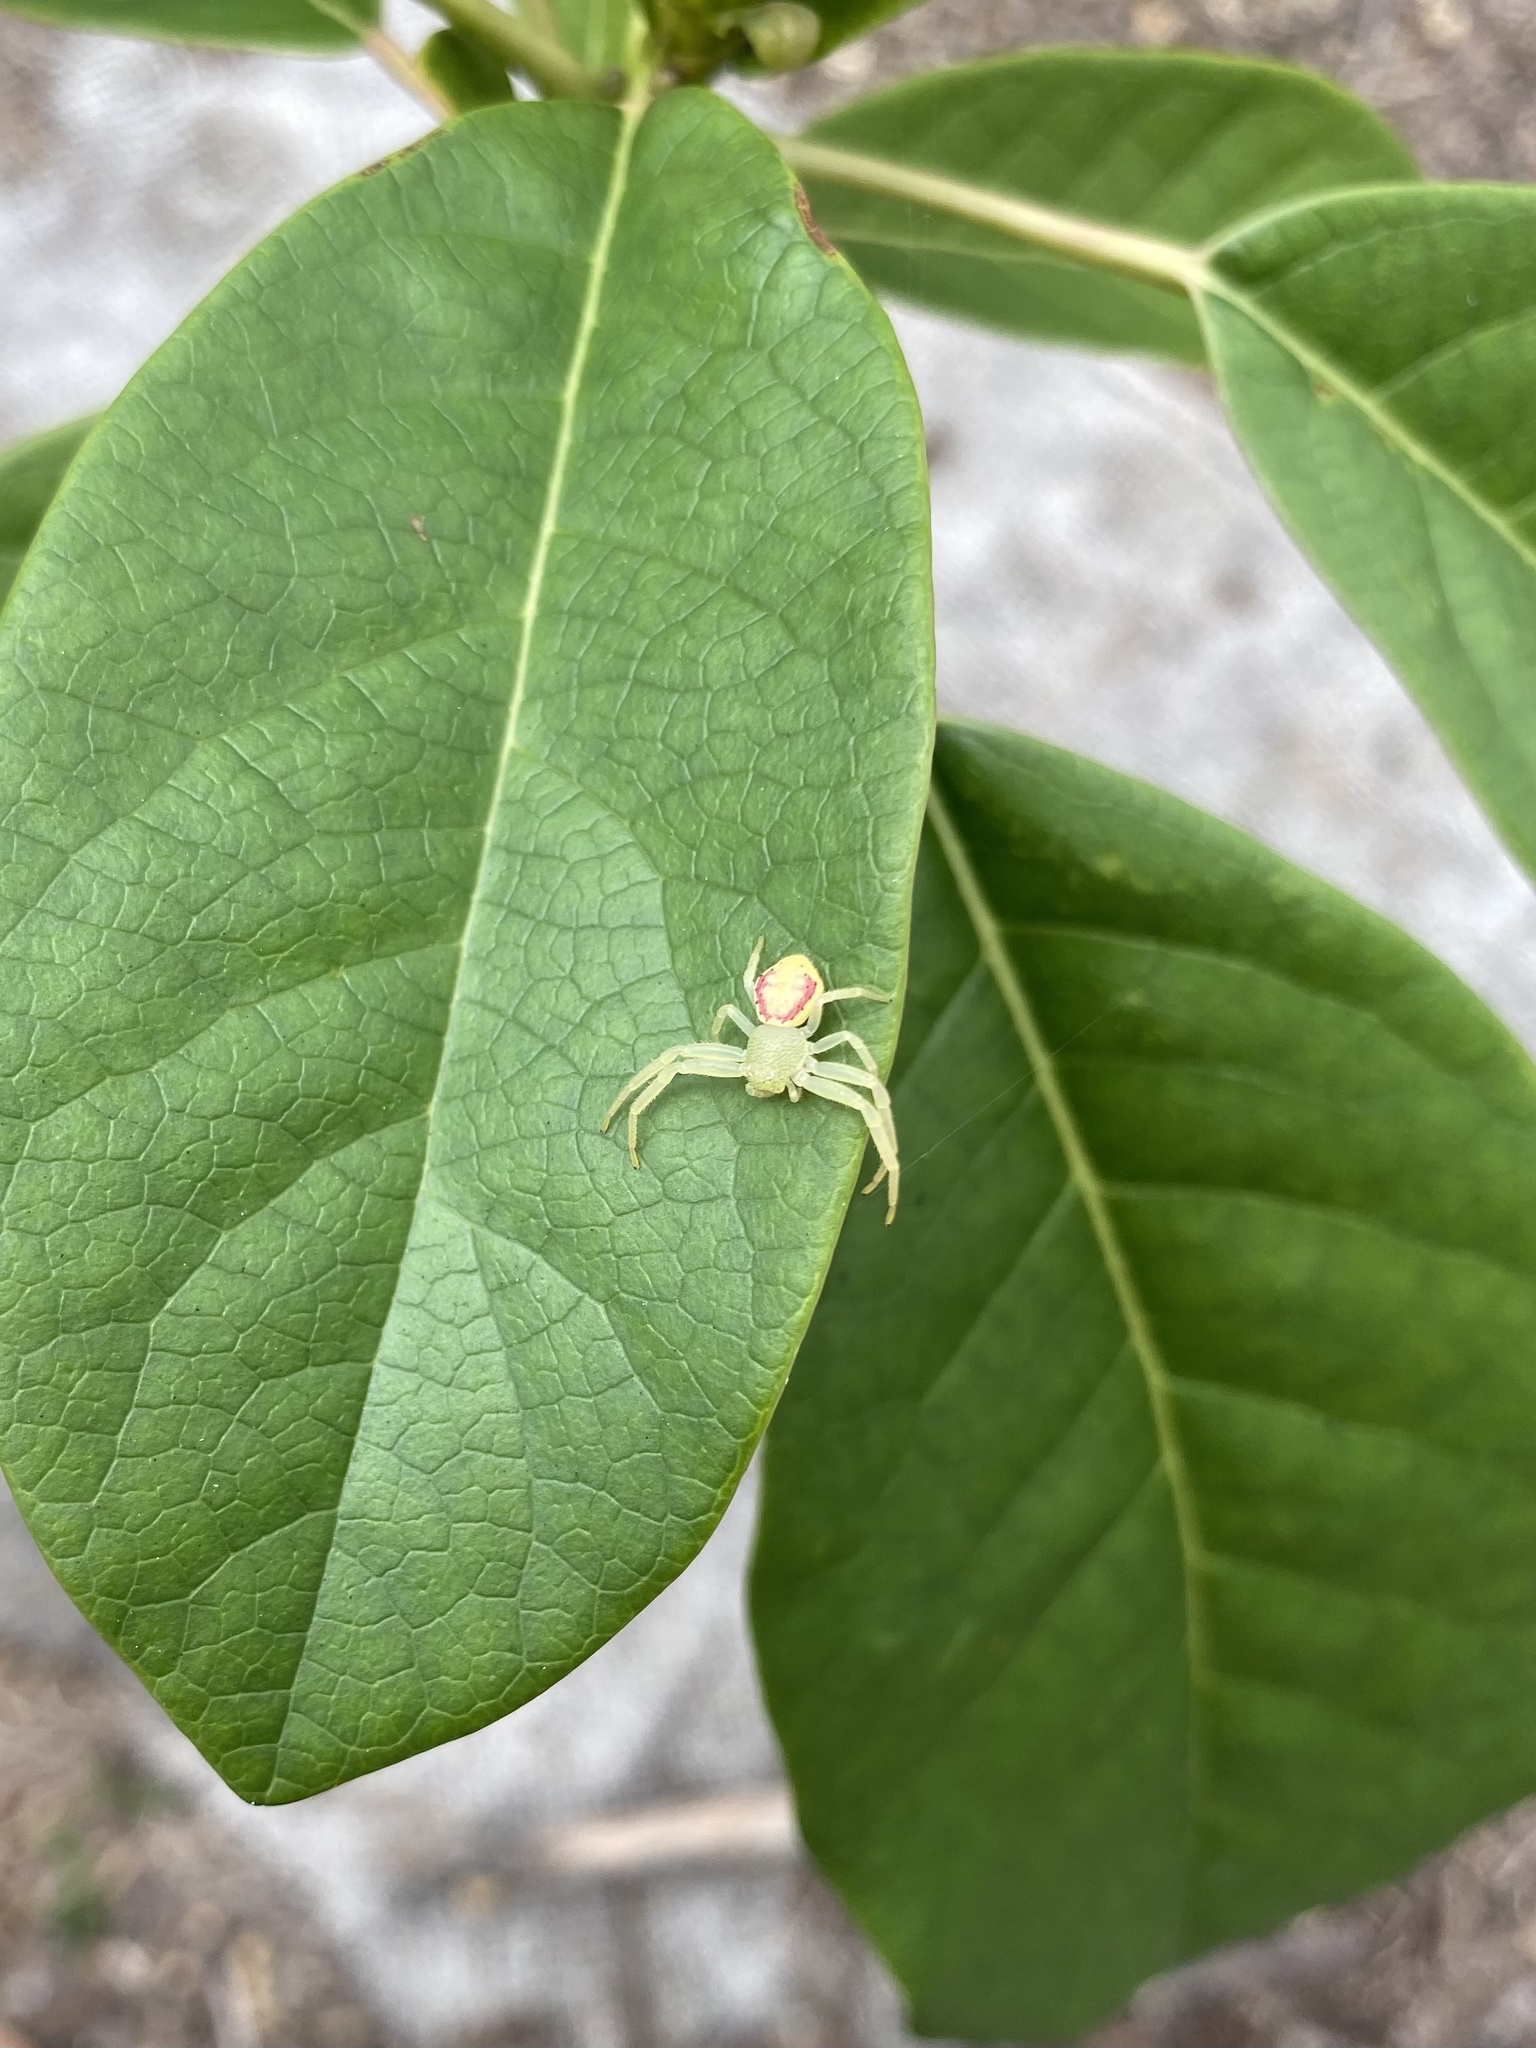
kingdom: Animalia
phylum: Arthropoda
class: Arachnida
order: Araneae
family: Thomisidae
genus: Diaea
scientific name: Diaea simplex
